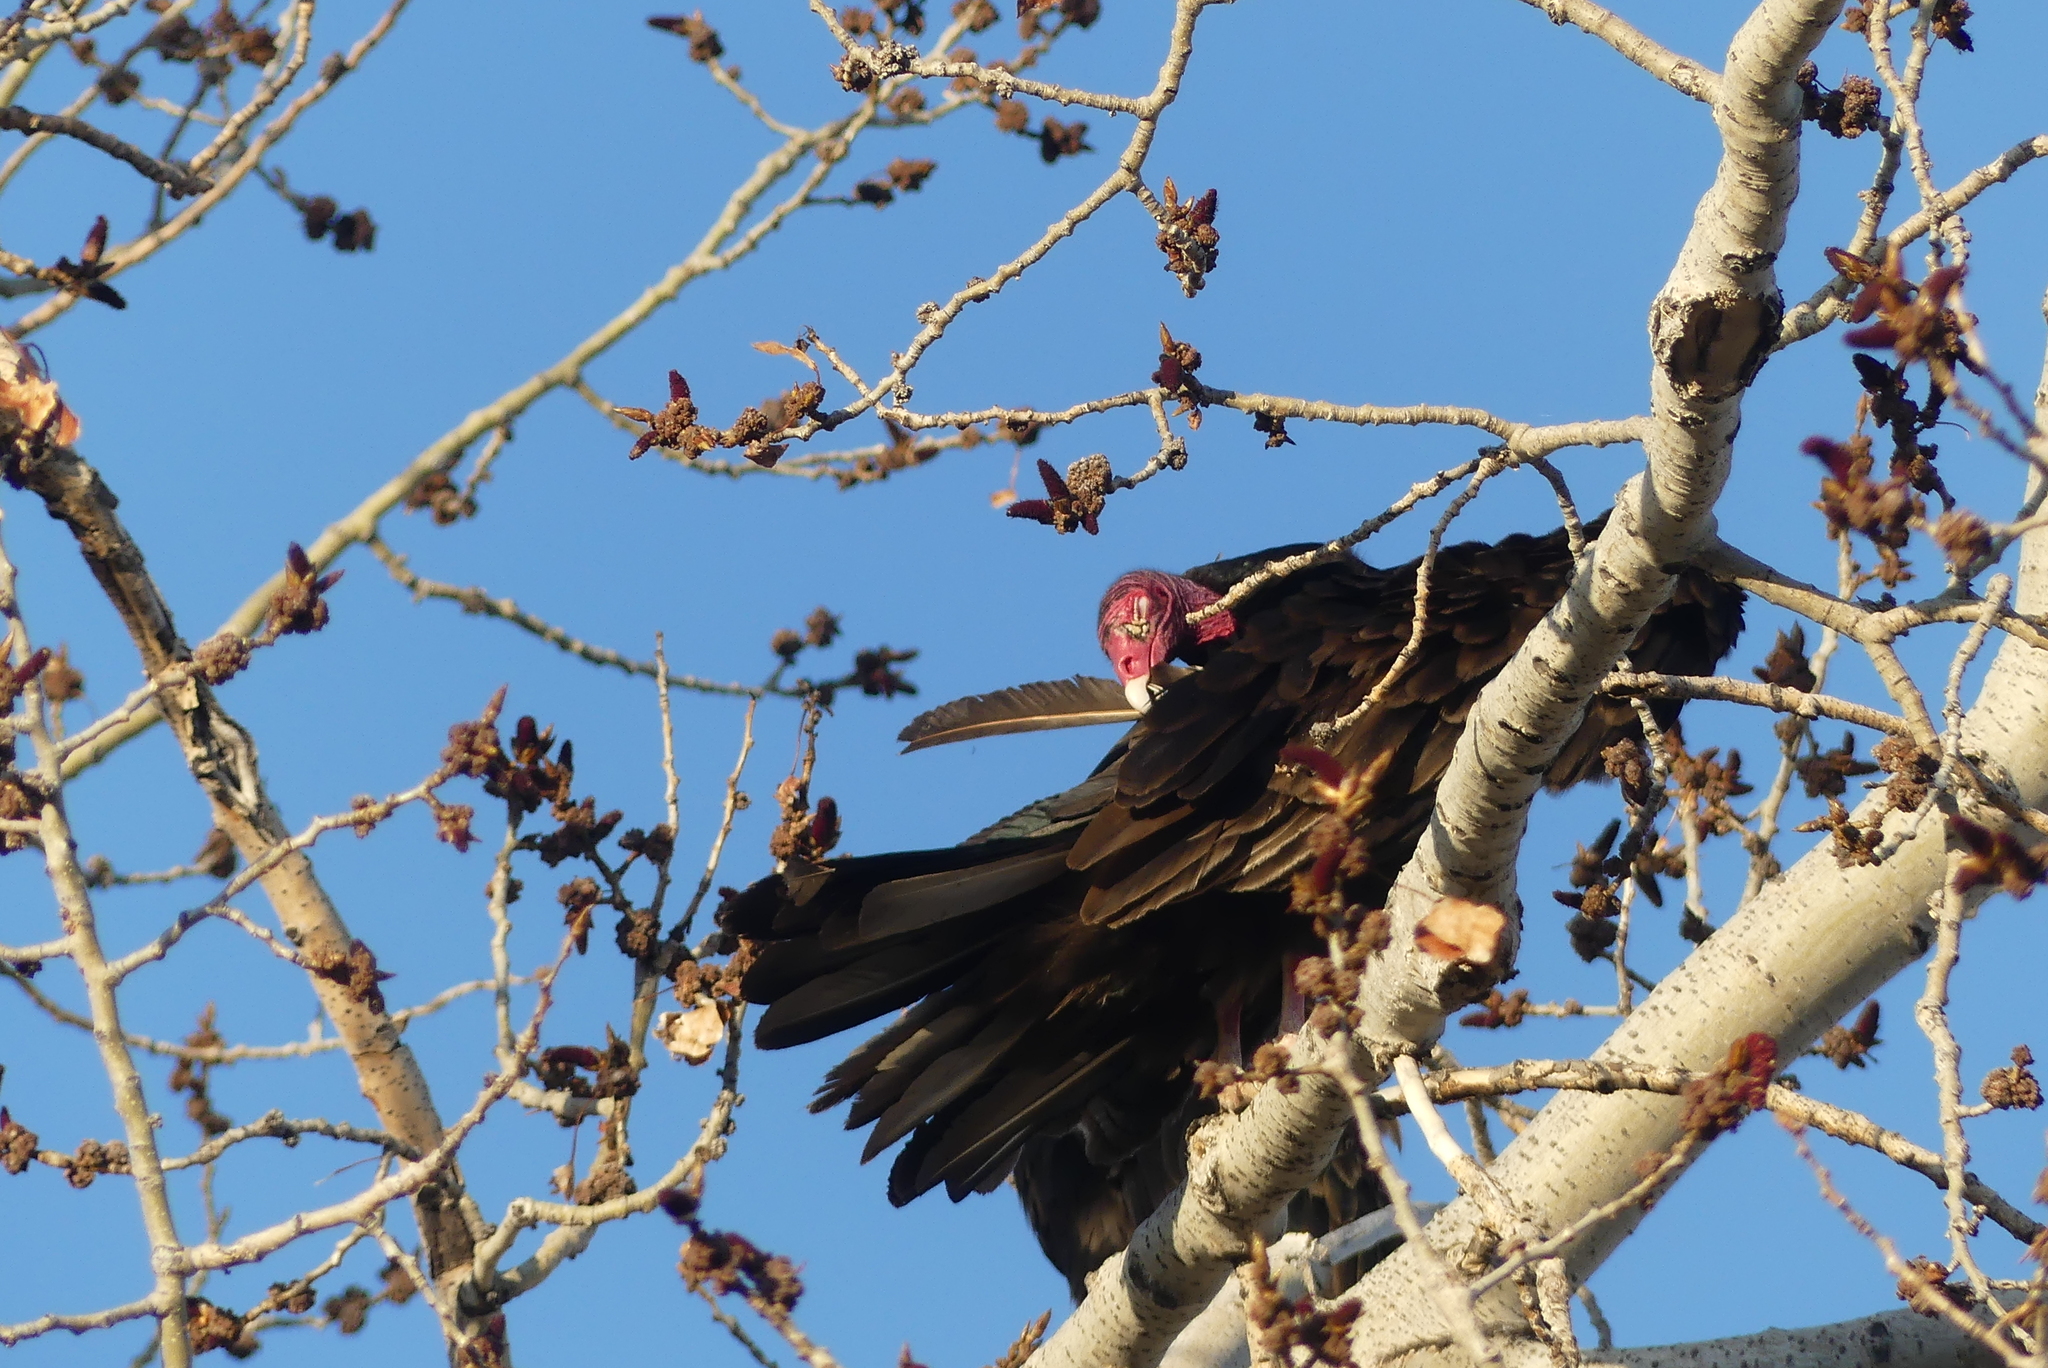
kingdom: Animalia
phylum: Chordata
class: Aves
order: Accipitriformes
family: Cathartidae
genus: Cathartes
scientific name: Cathartes aura
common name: Turkey vulture
